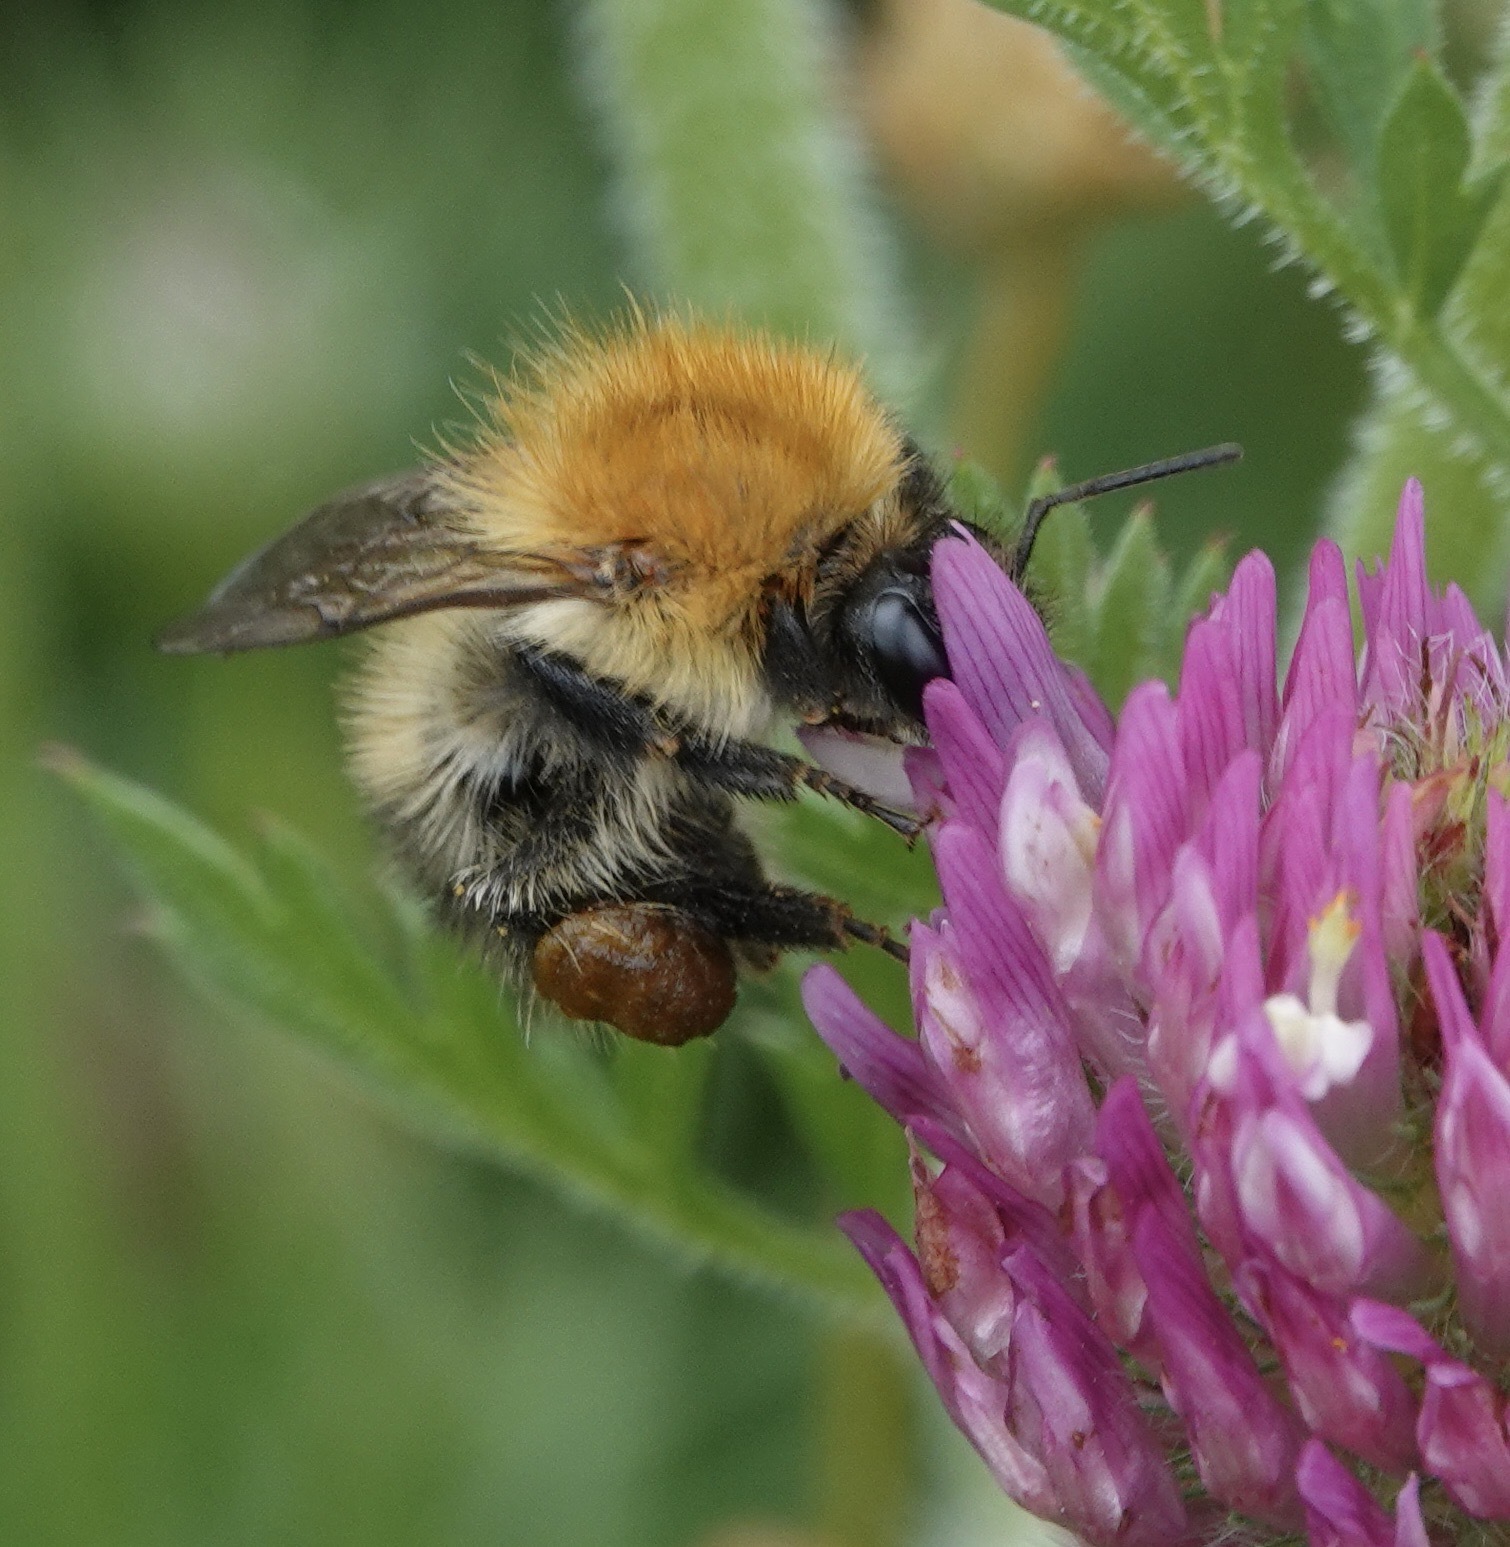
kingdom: Animalia
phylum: Arthropoda
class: Insecta
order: Hymenoptera
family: Apidae
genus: Bombus
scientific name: Bombus pascuorum
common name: Common carder bee
